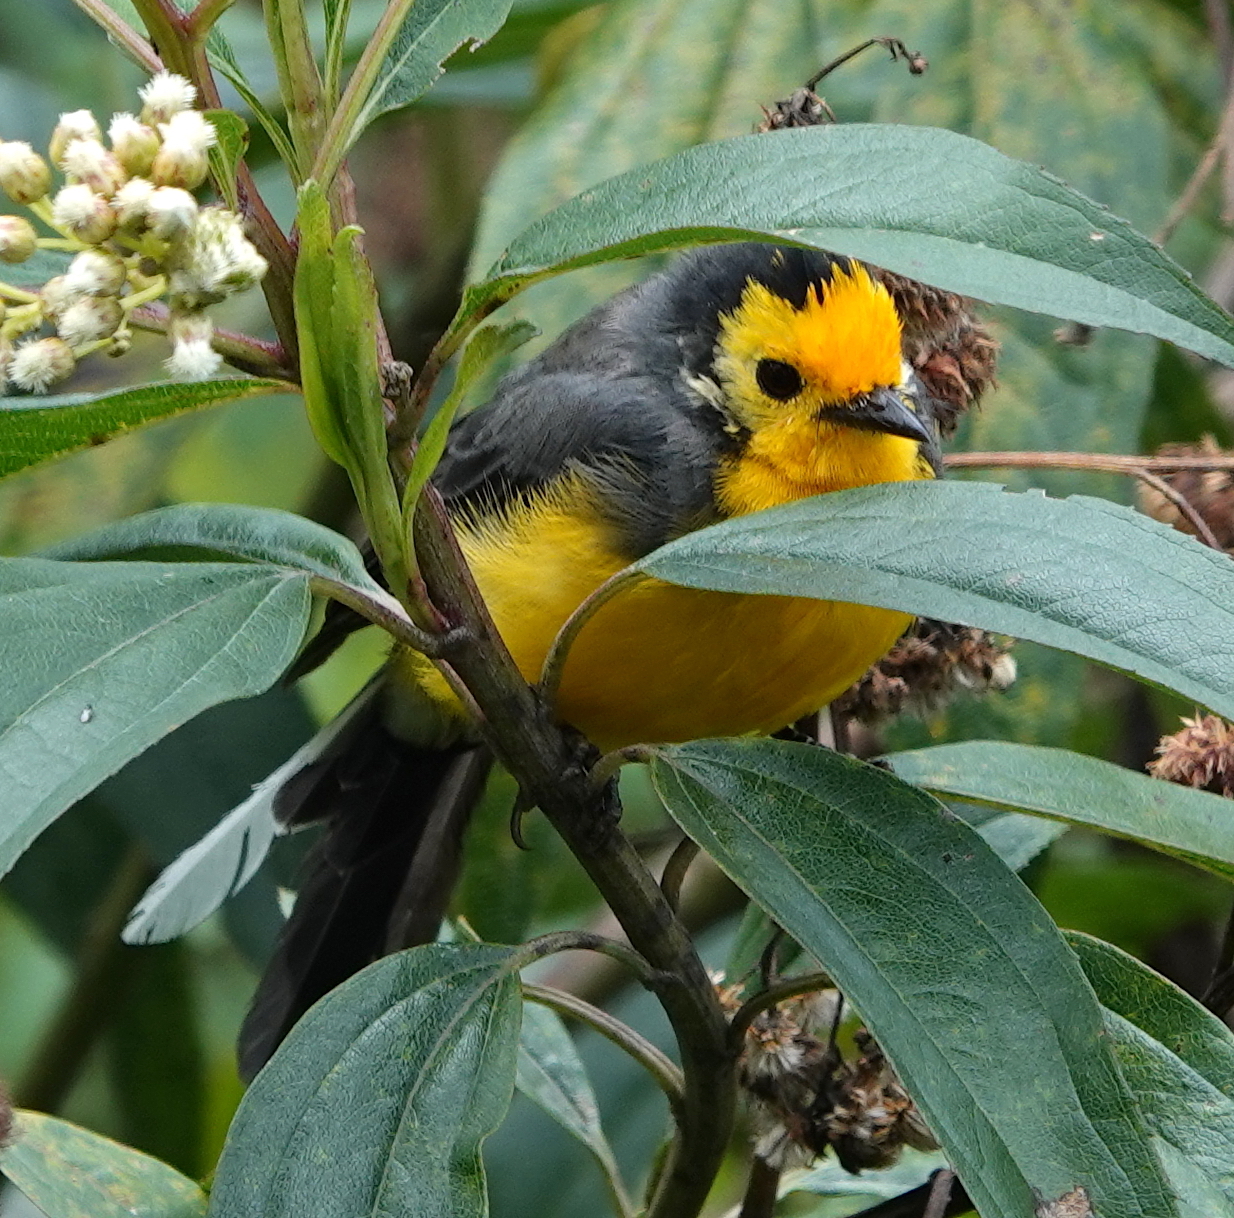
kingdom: Animalia
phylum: Chordata
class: Aves
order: Passeriformes
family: Parulidae
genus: Myioborus
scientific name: Myioborus ornatus
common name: Golden-fronted whitestart
